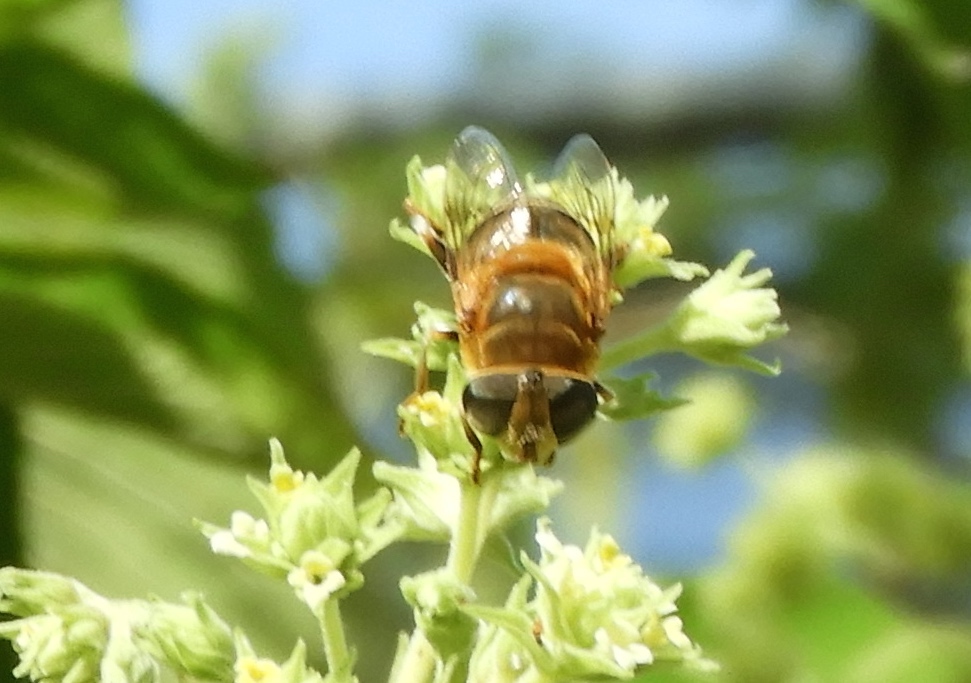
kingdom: Animalia
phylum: Arthropoda
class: Insecta
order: Diptera
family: Syrphidae
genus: Palpada
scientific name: Palpada mexicana
